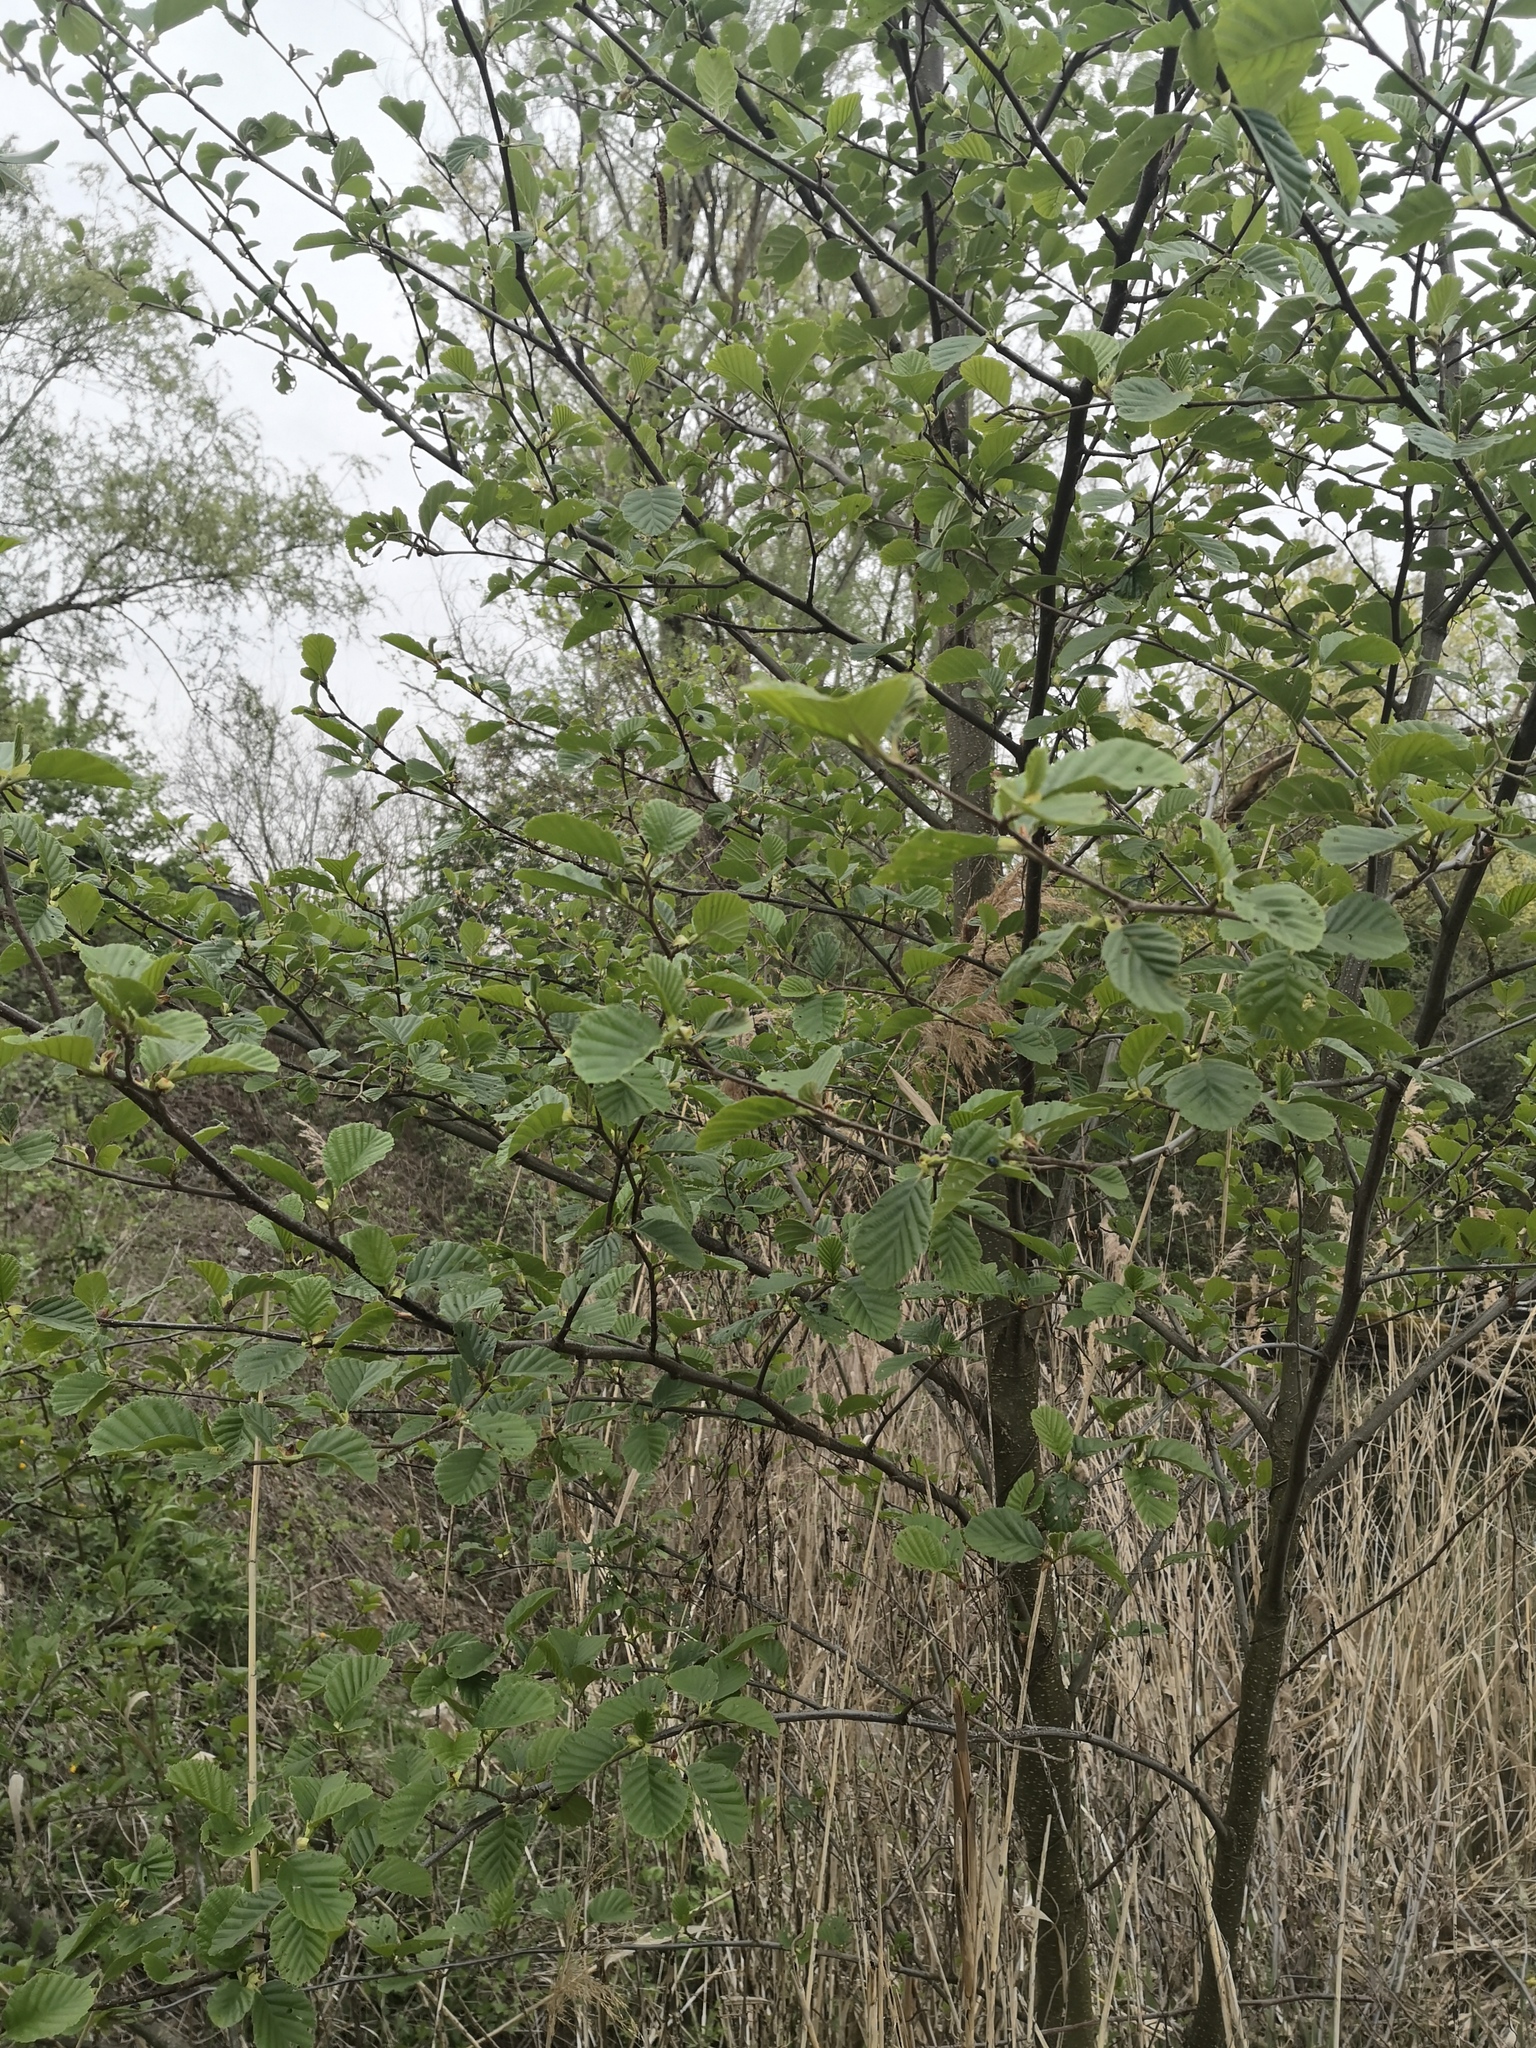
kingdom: Plantae
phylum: Tracheophyta
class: Magnoliopsida
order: Fagales
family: Betulaceae
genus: Alnus
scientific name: Alnus glutinosa
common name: Black alder
